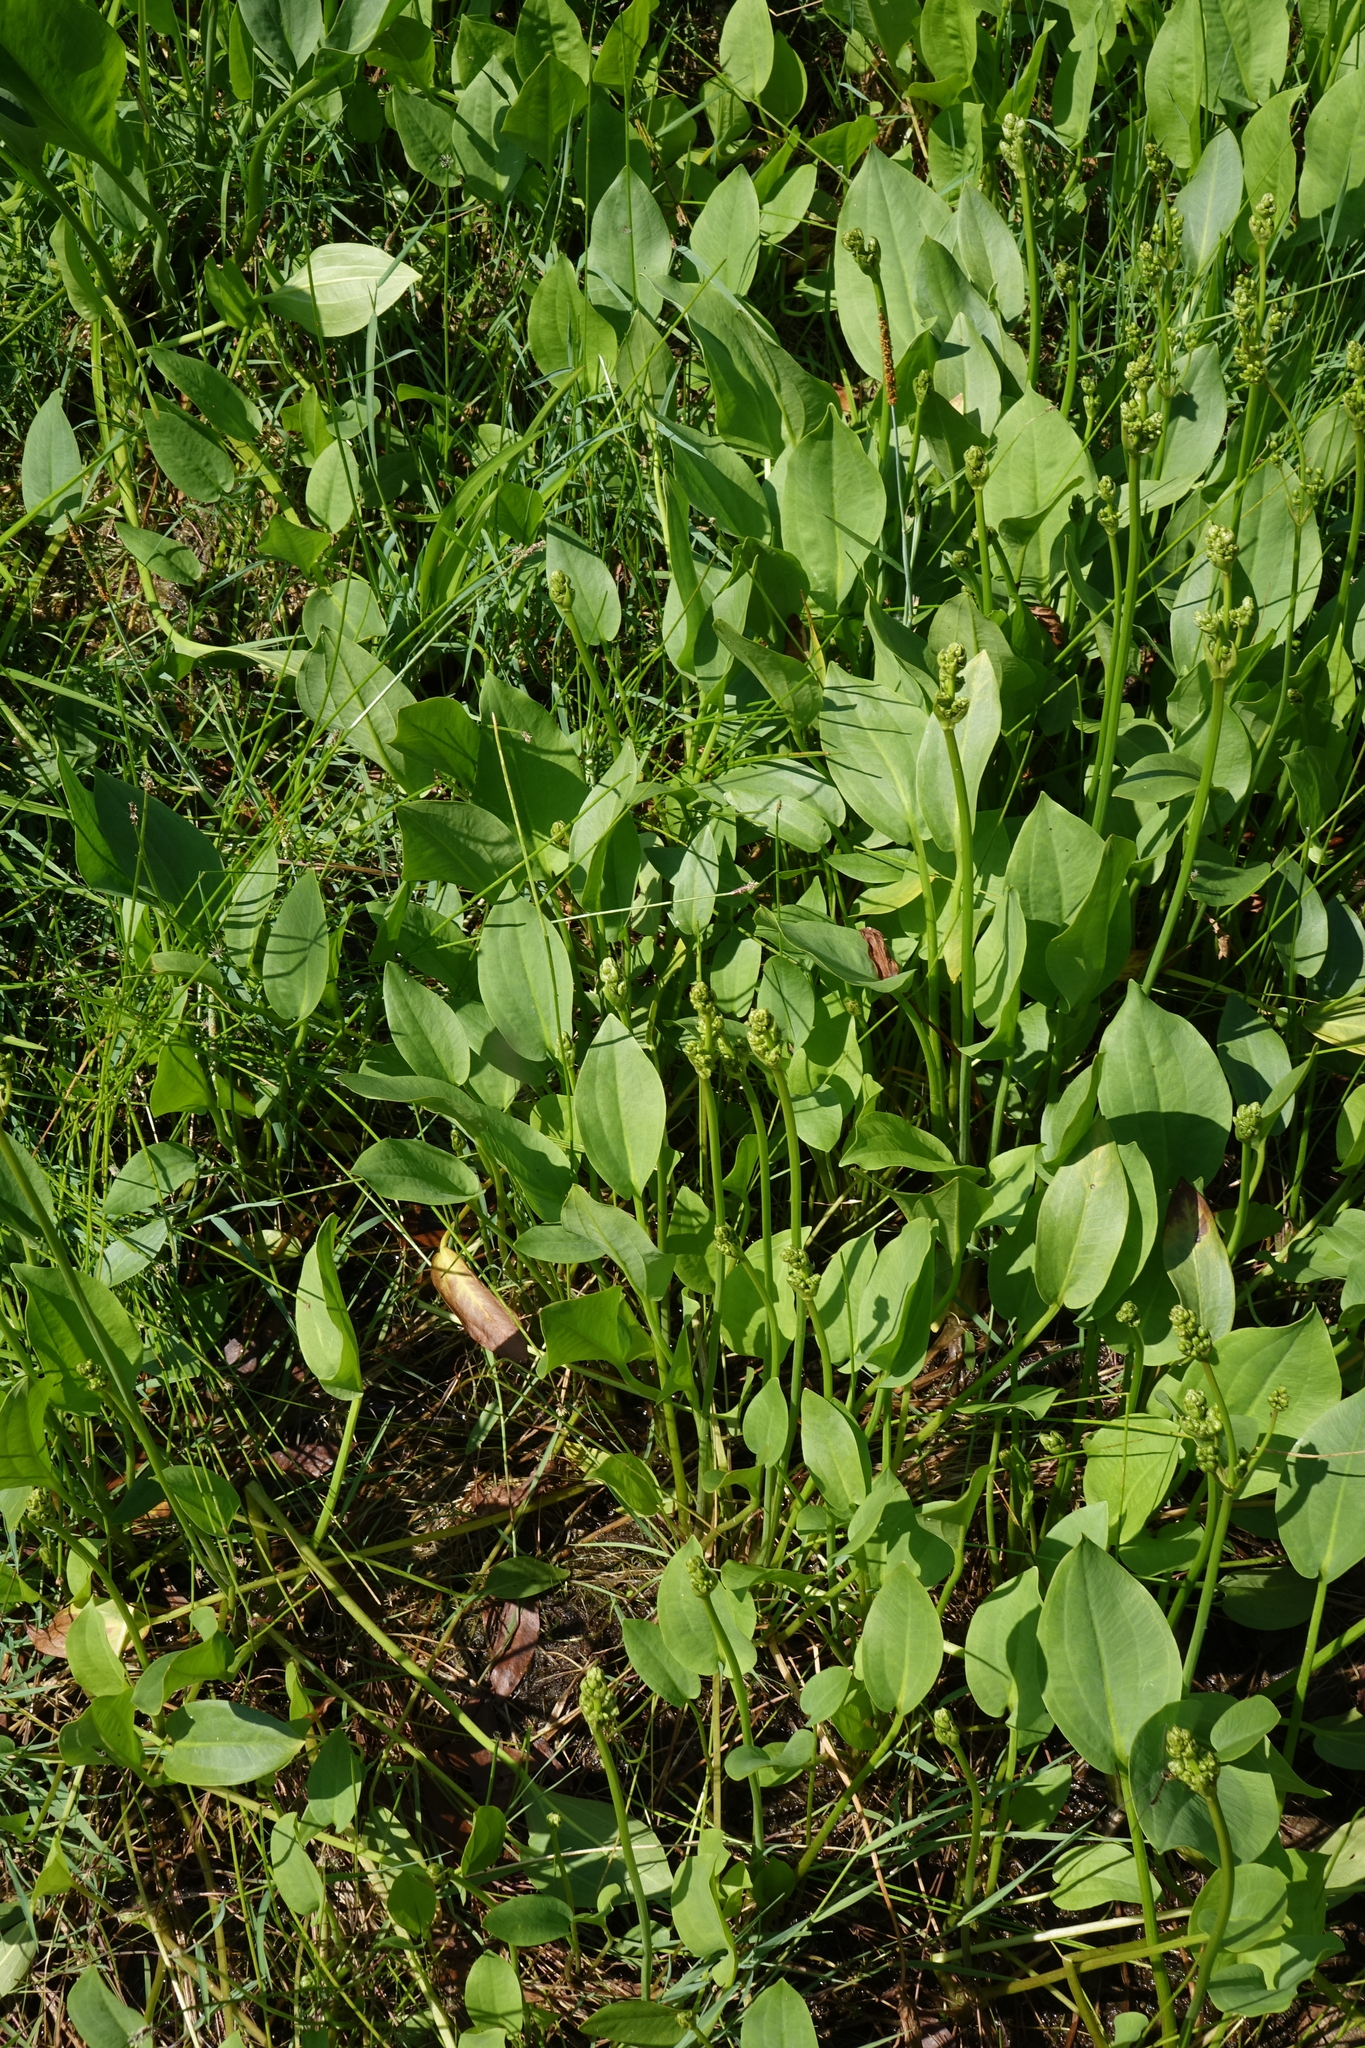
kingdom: Plantae
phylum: Tracheophyta
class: Liliopsida
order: Alismatales
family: Alismataceae
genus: Alisma
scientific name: Alisma plantago-aquatica
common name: Water-plantain
